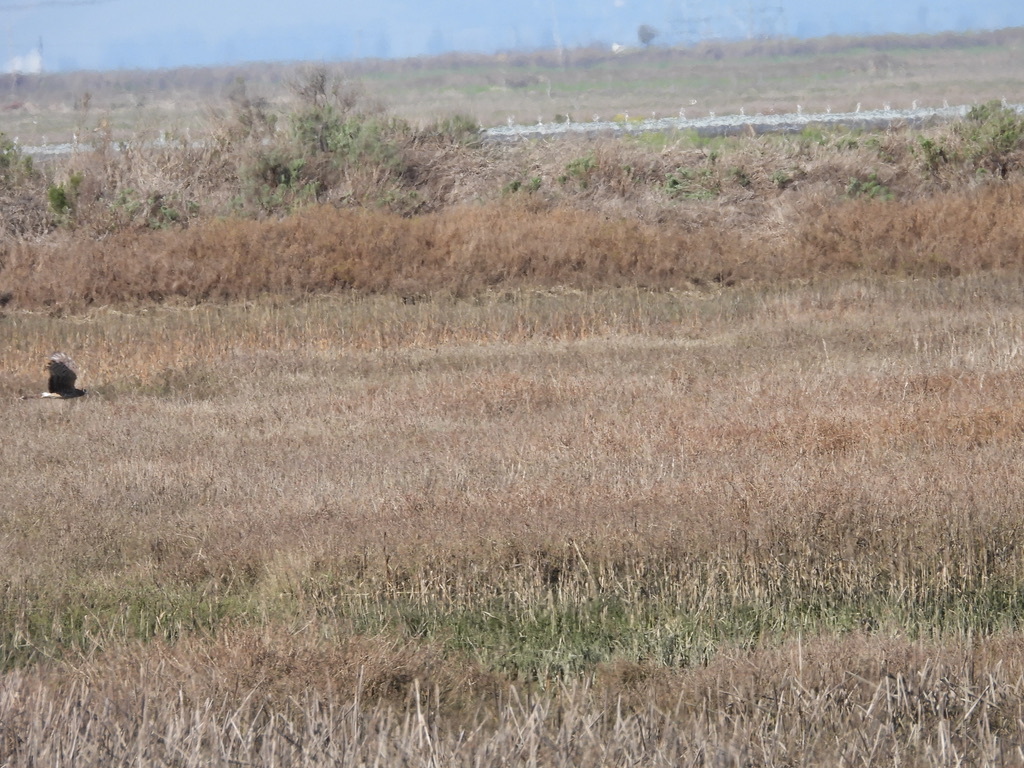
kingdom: Animalia
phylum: Chordata
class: Aves
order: Accipitriformes
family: Accipitridae
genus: Circus
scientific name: Circus cyaneus
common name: Hen harrier
